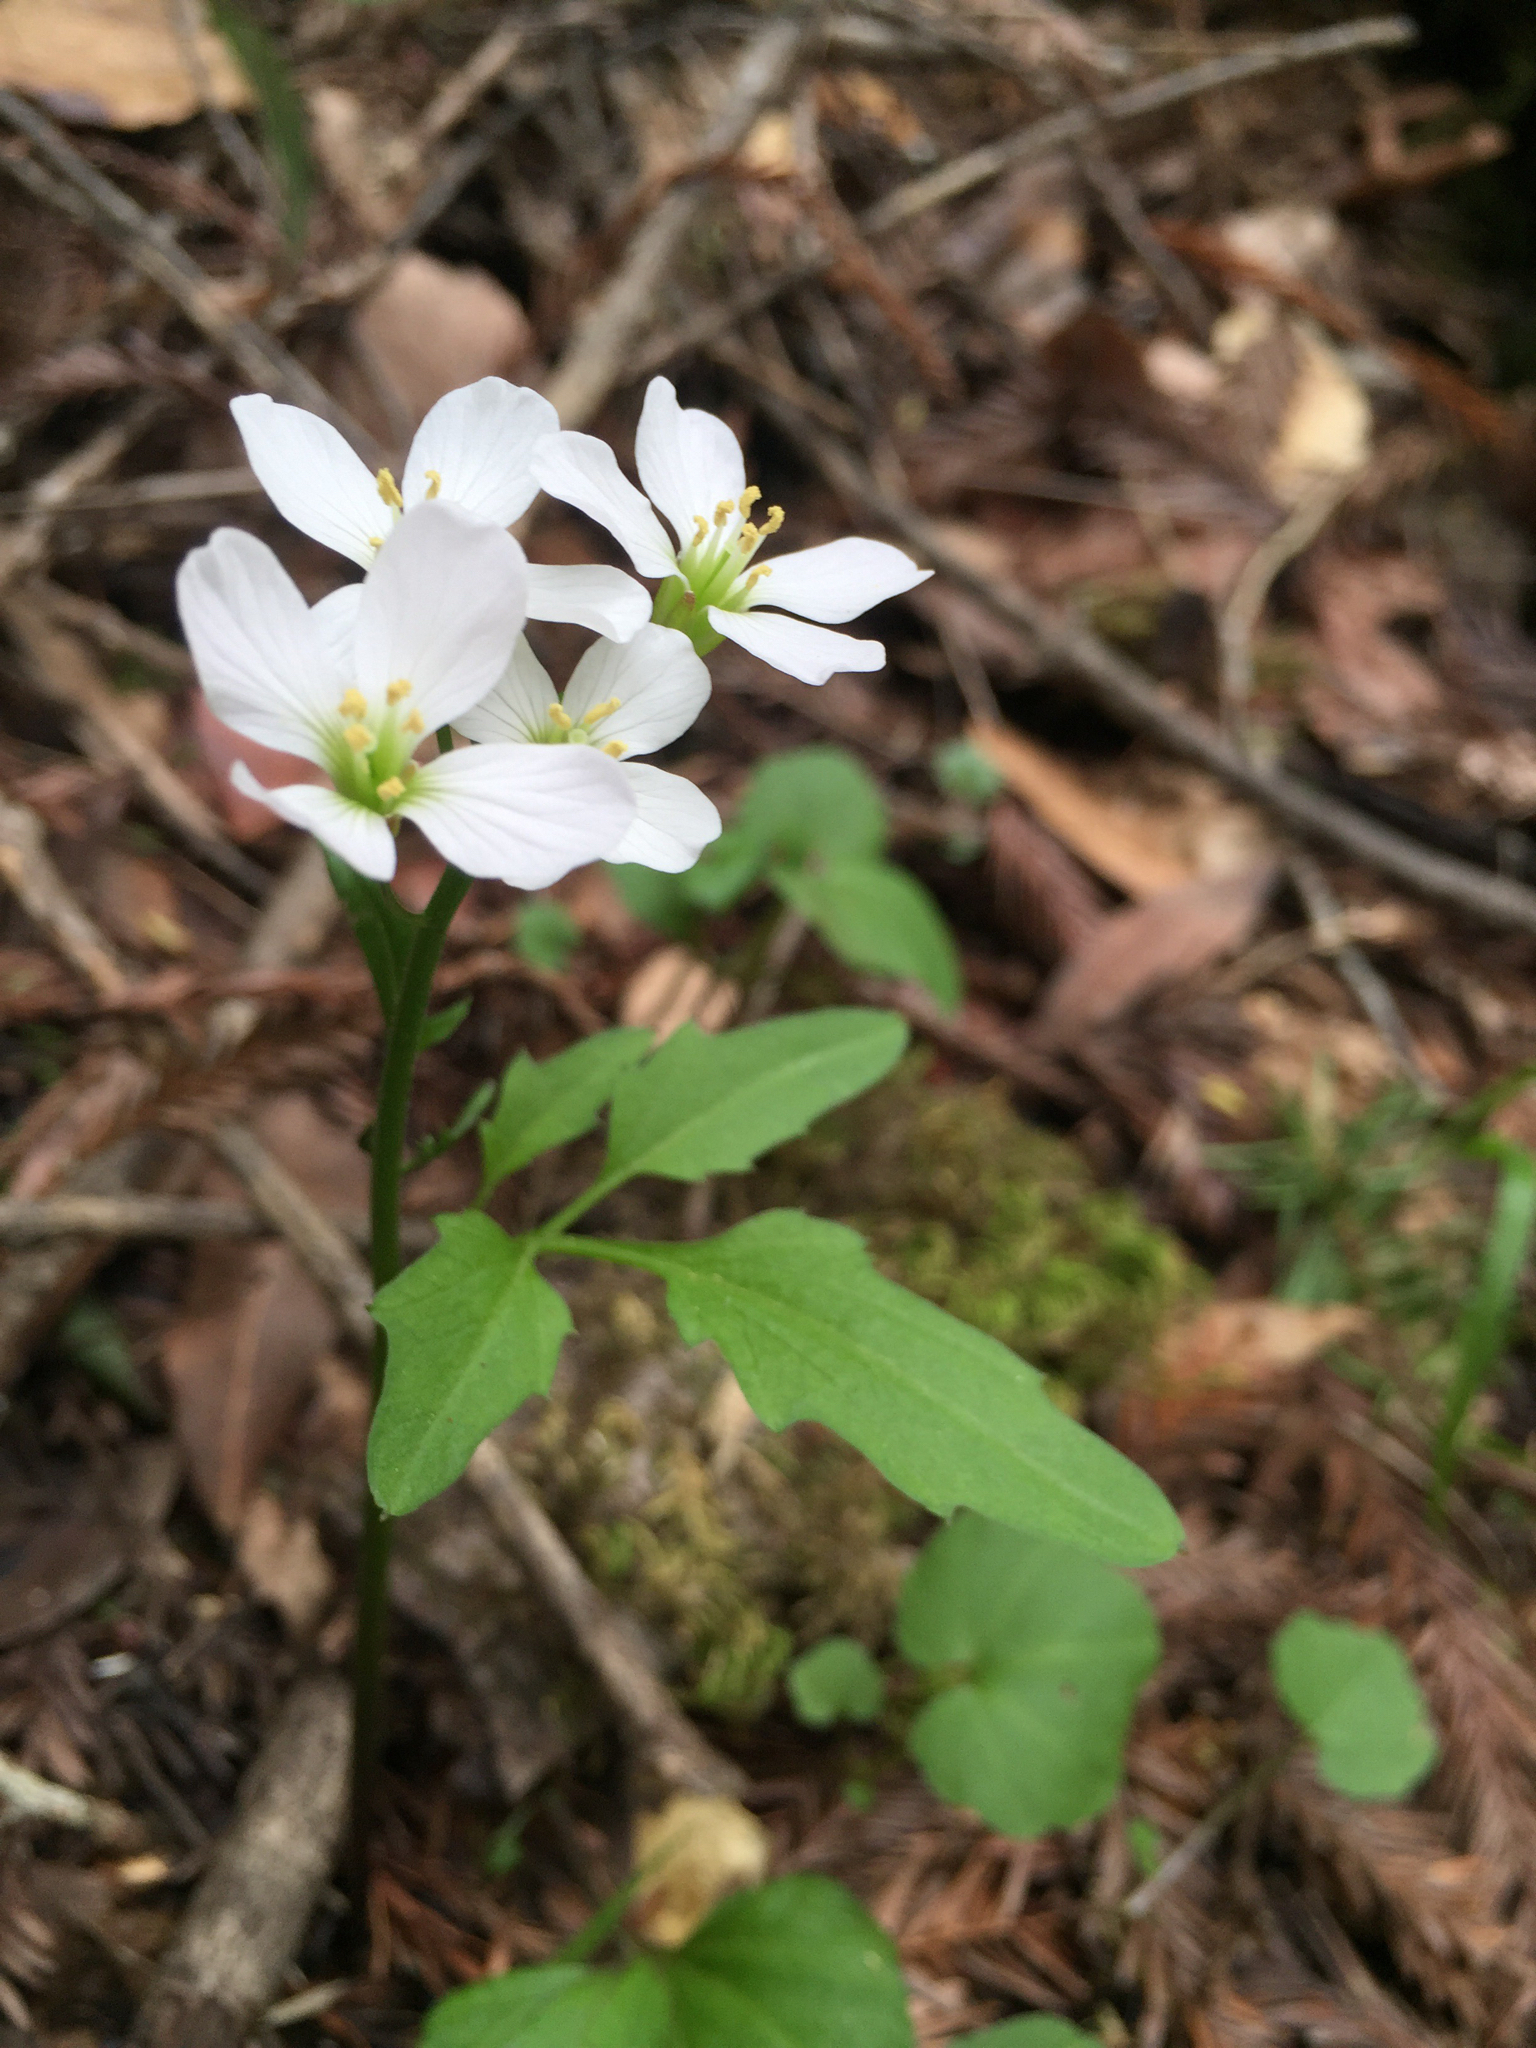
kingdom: Plantae
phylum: Tracheophyta
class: Magnoliopsida
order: Brassicales
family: Brassicaceae
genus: Cardamine
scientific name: Cardamine californica
